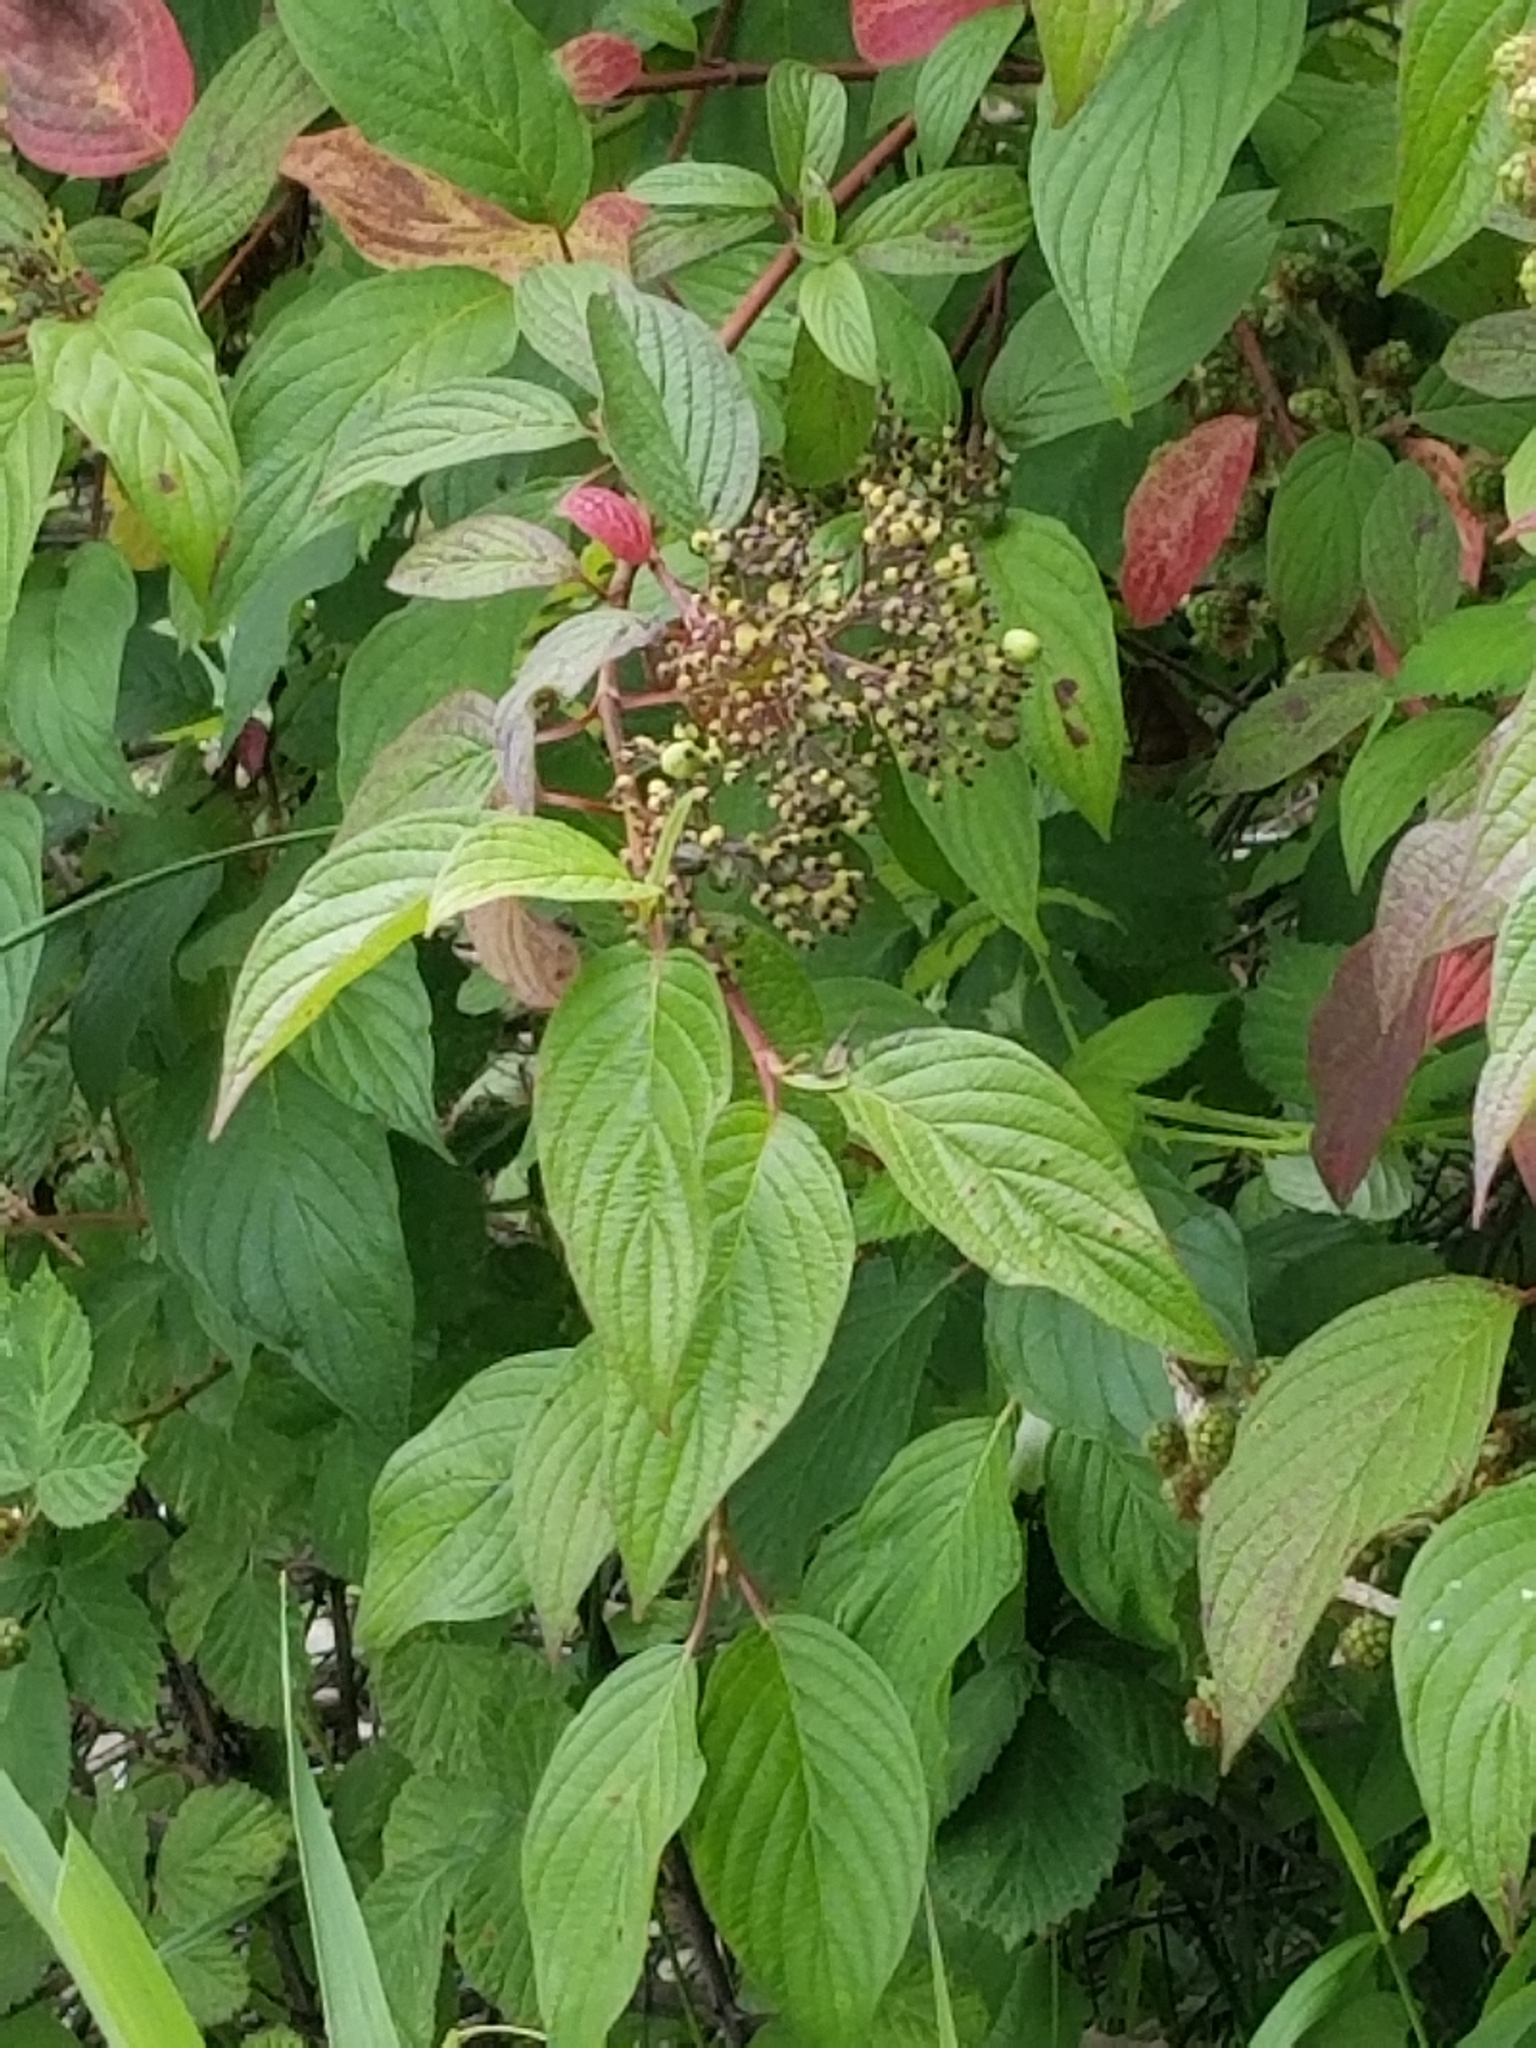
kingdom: Plantae
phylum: Tracheophyta
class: Magnoliopsida
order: Cornales
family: Cornaceae
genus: Cornus
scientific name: Cornus sericea
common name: Red-osier dogwood
